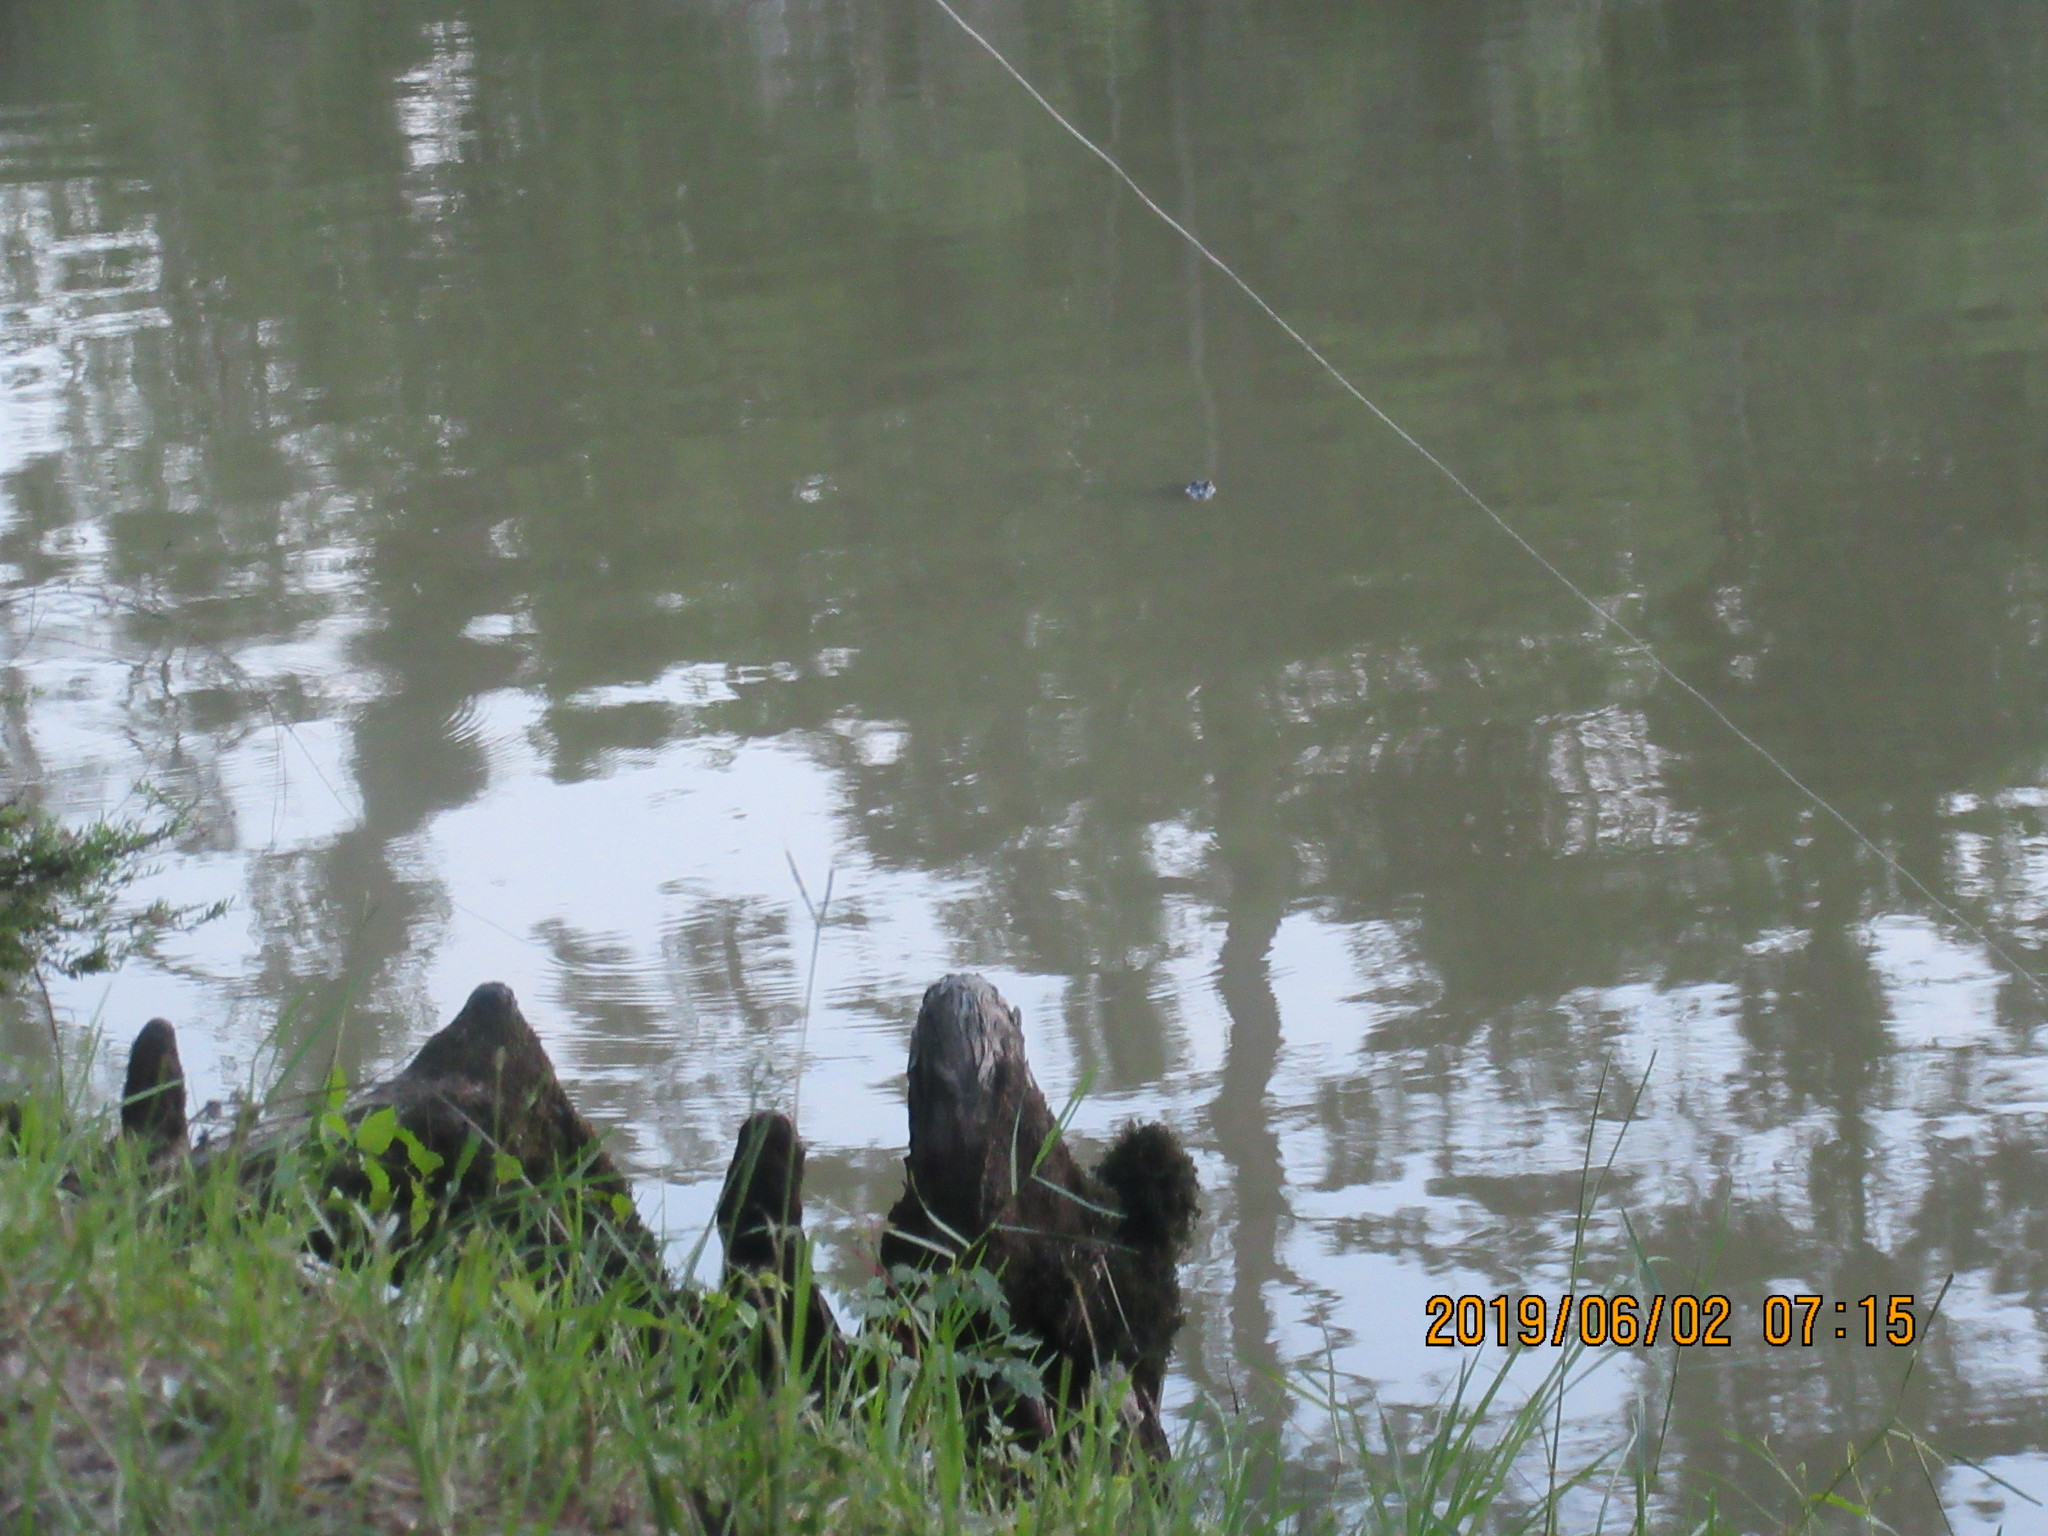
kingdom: Animalia
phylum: Chordata
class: Crocodylia
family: Alligatoridae
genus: Alligator
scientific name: Alligator mississippiensis
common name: American alligator
